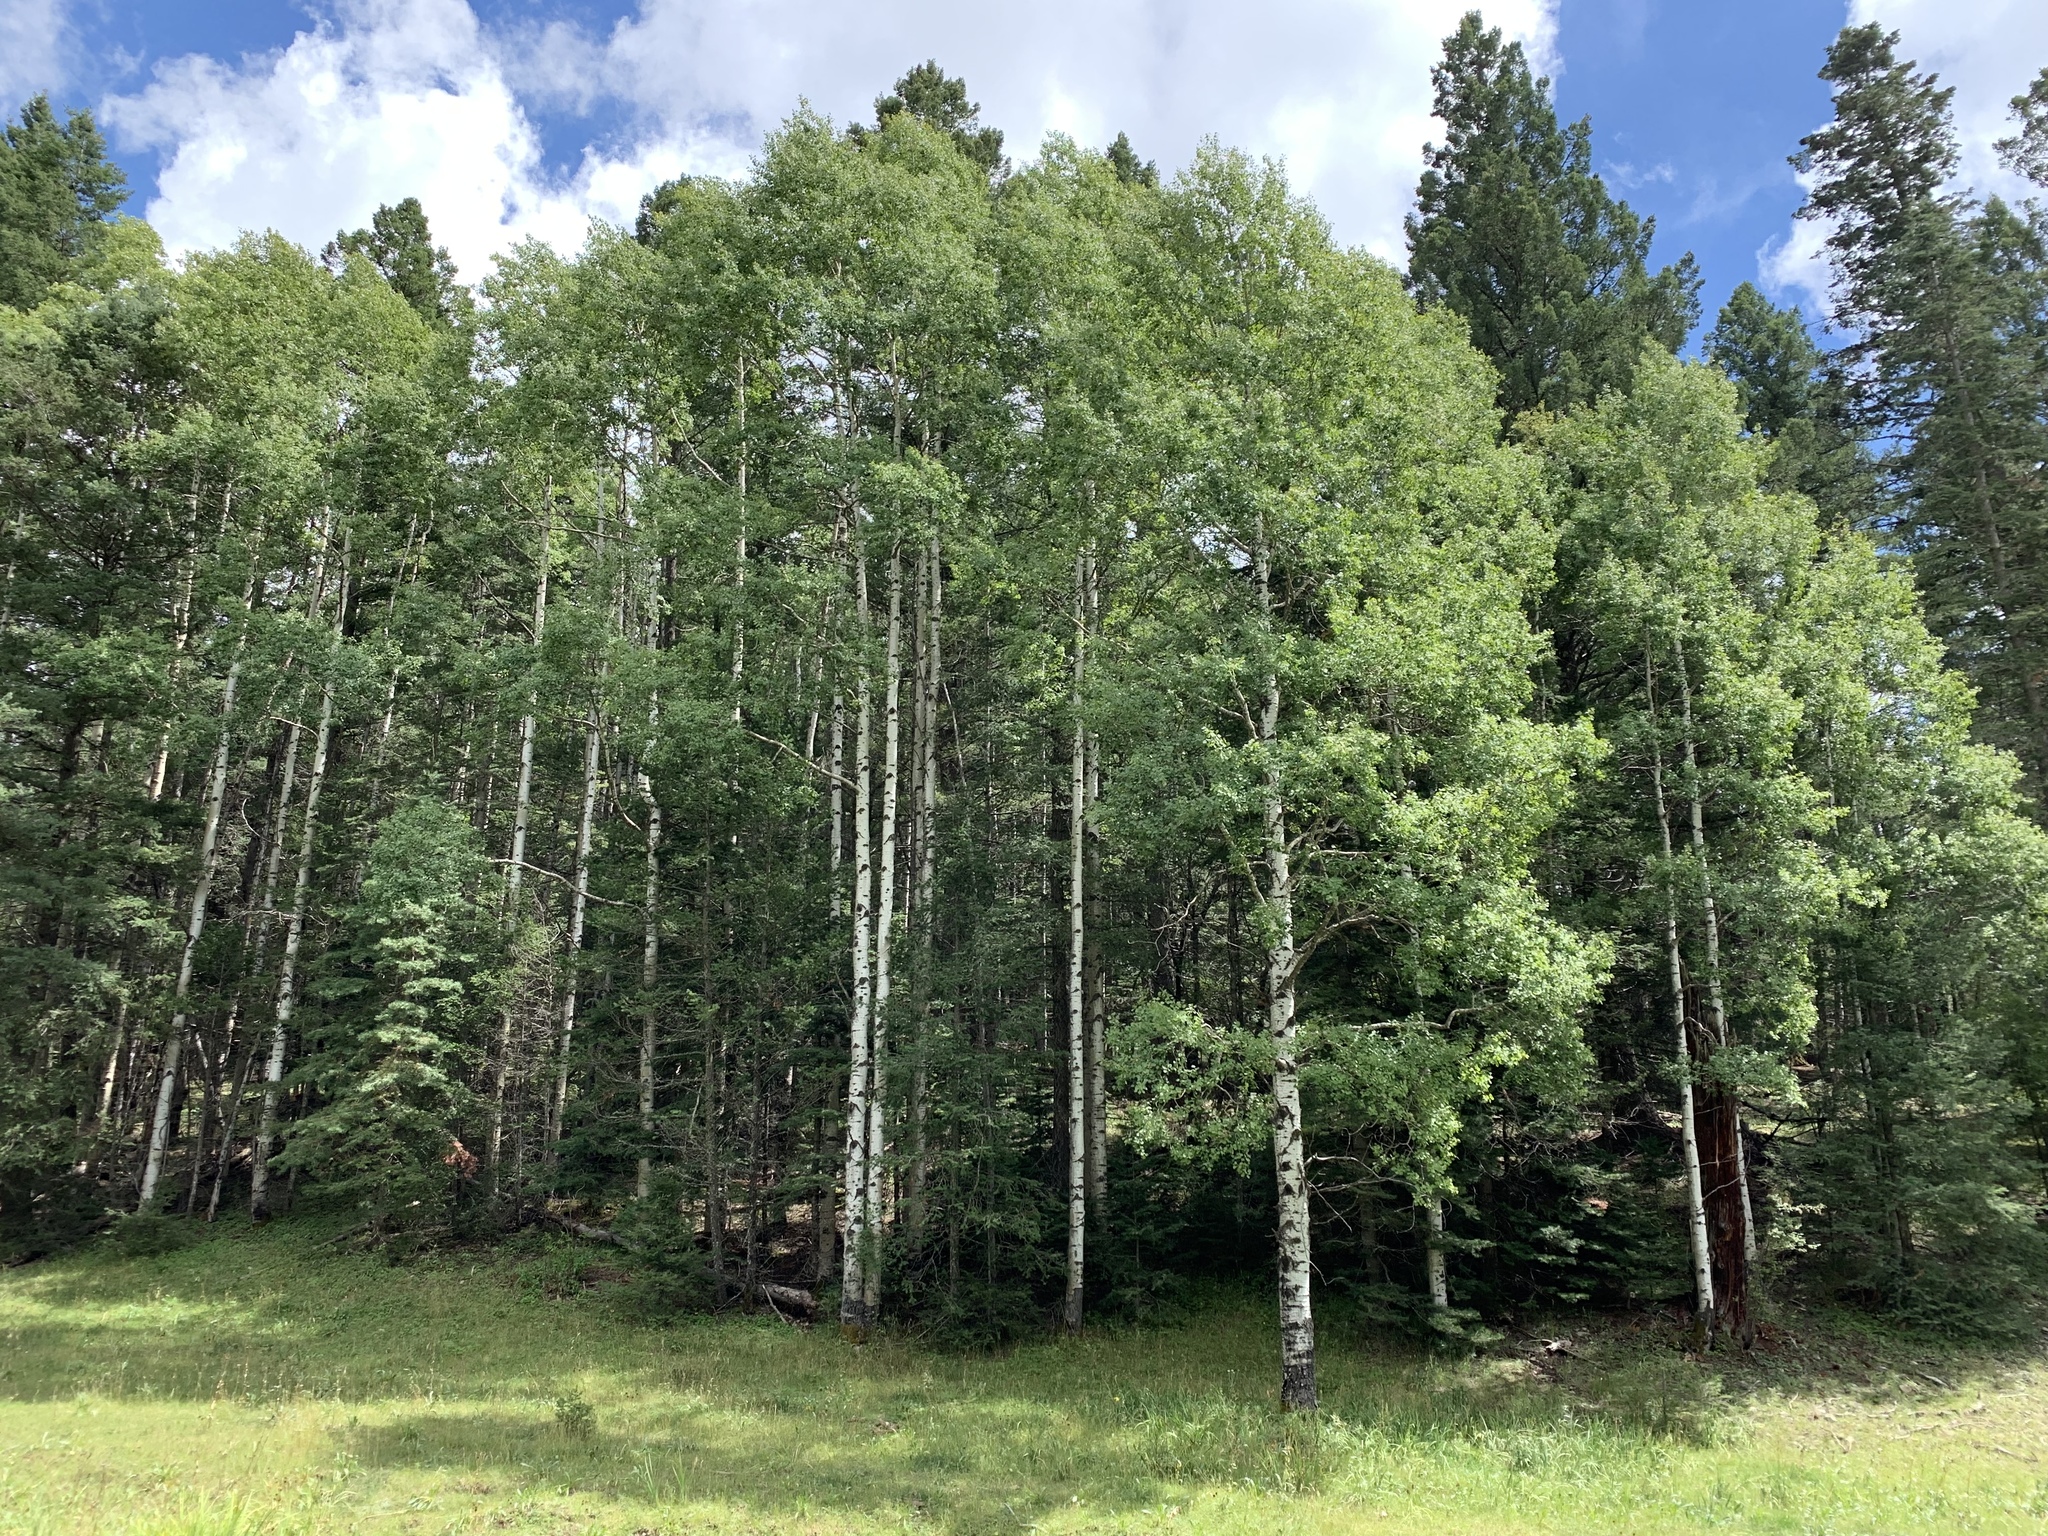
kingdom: Plantae
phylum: Tracheophyta
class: Magnoliopsida
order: Malpighiales
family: Salicaceae
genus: Populus
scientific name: Populus tremuloides
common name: Quaking aspen
